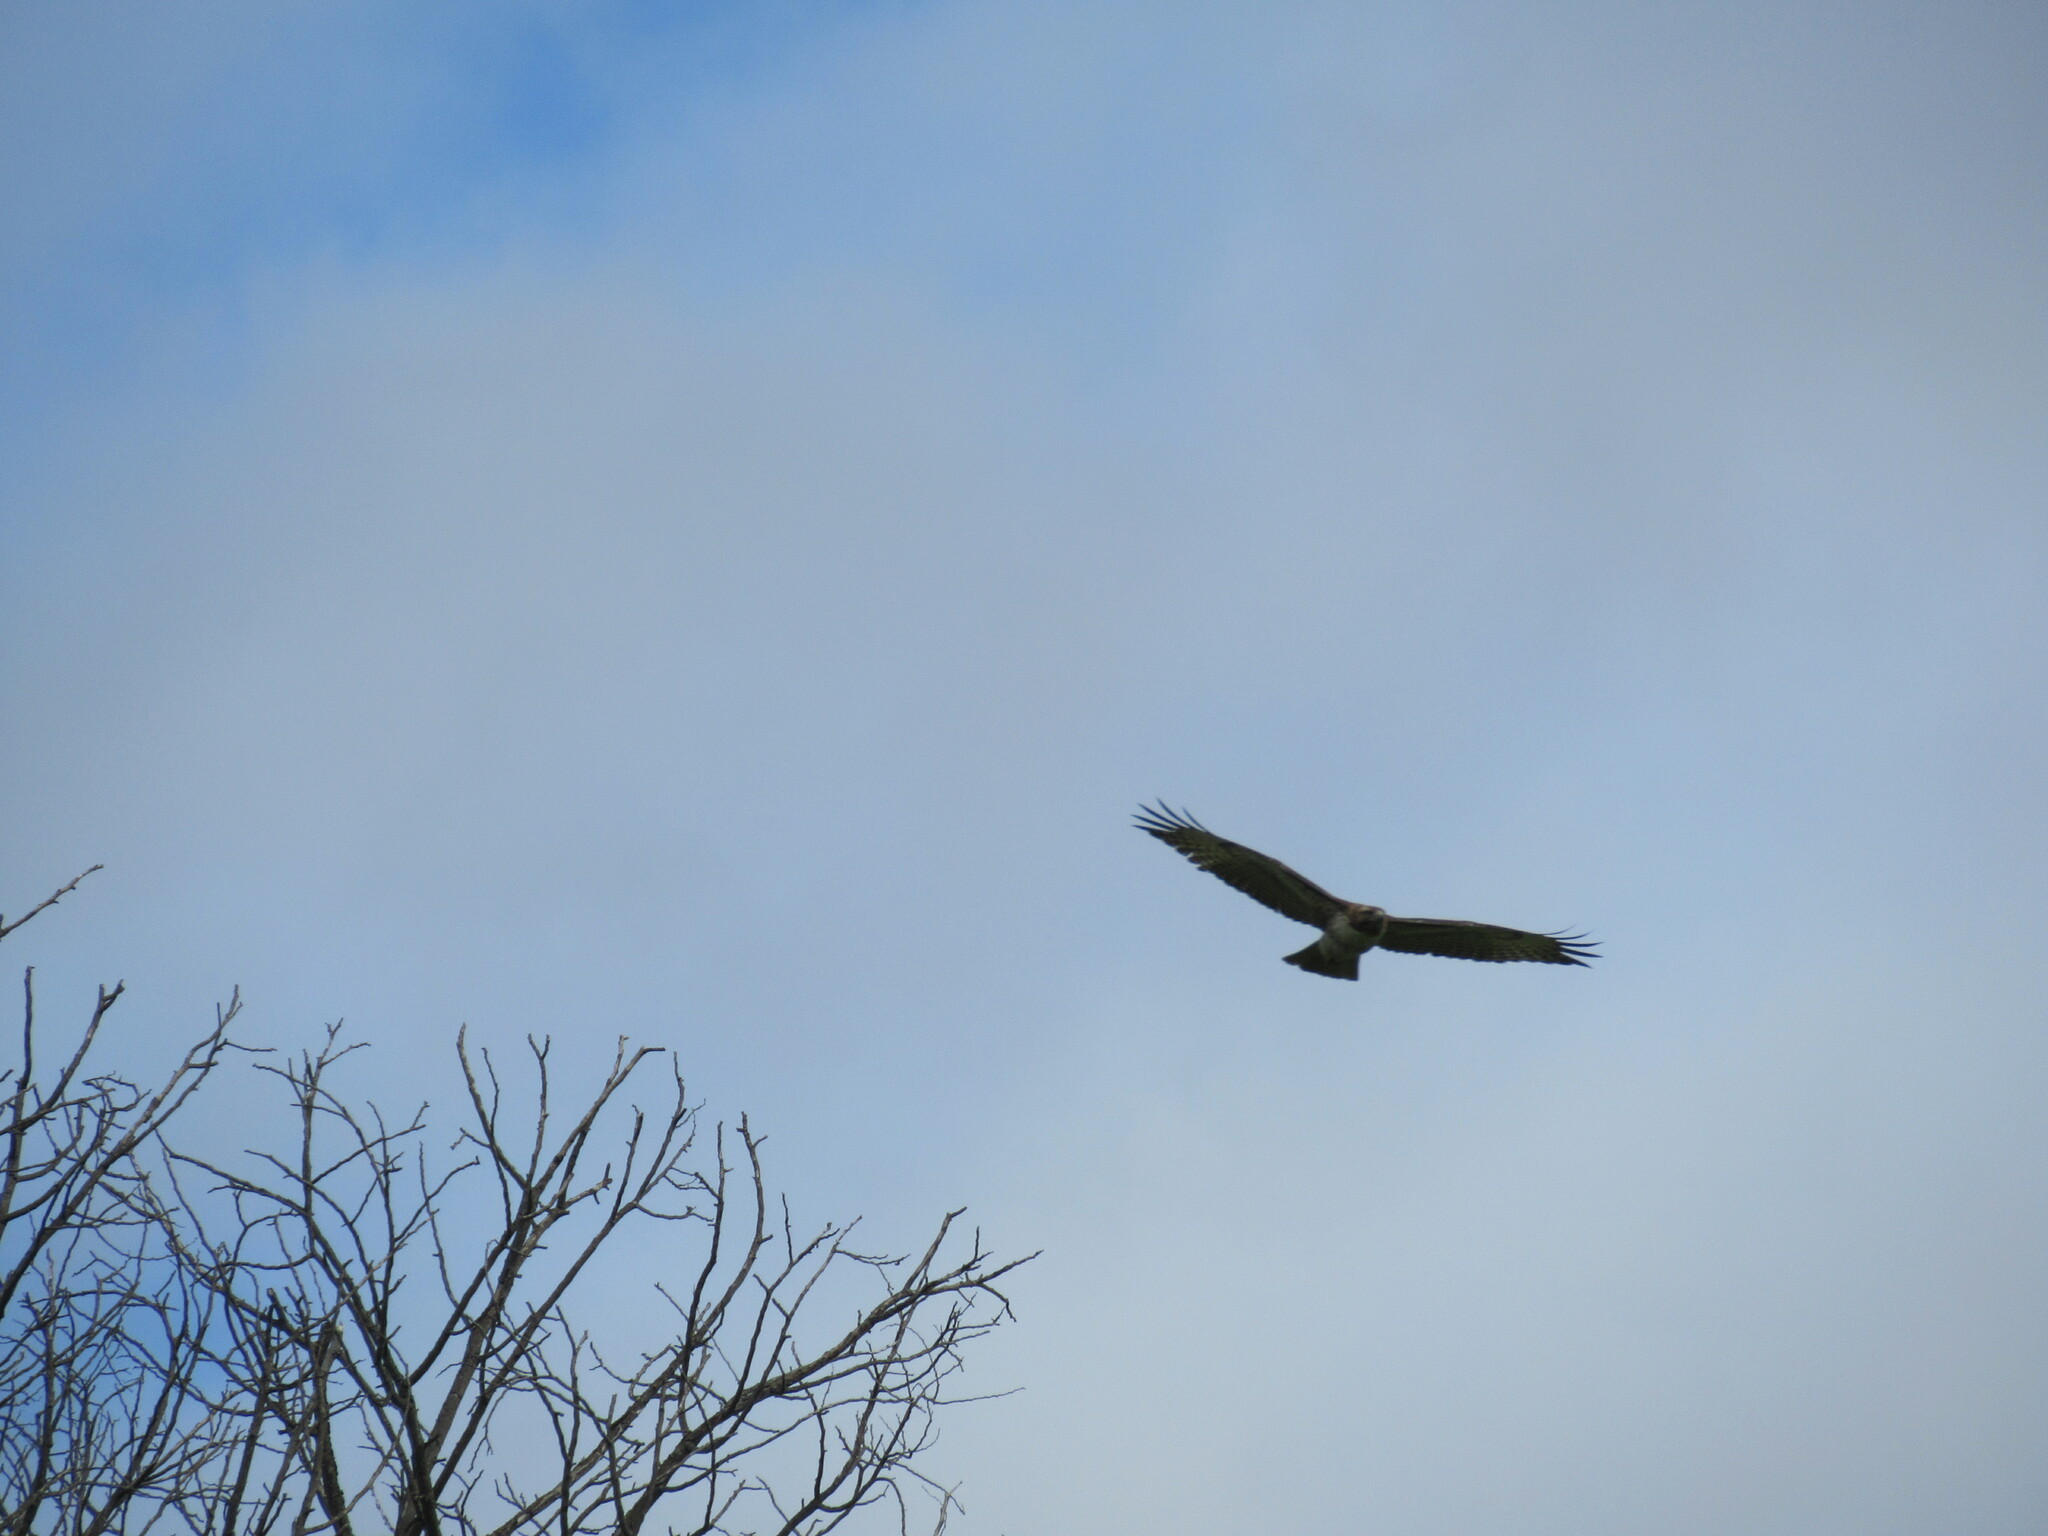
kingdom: Animalia
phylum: Chordata
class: Aves
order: Accipitriformes
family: Accipitridae
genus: Buteo
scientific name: Buteo jamaicensis
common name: Red-tailed hawk
